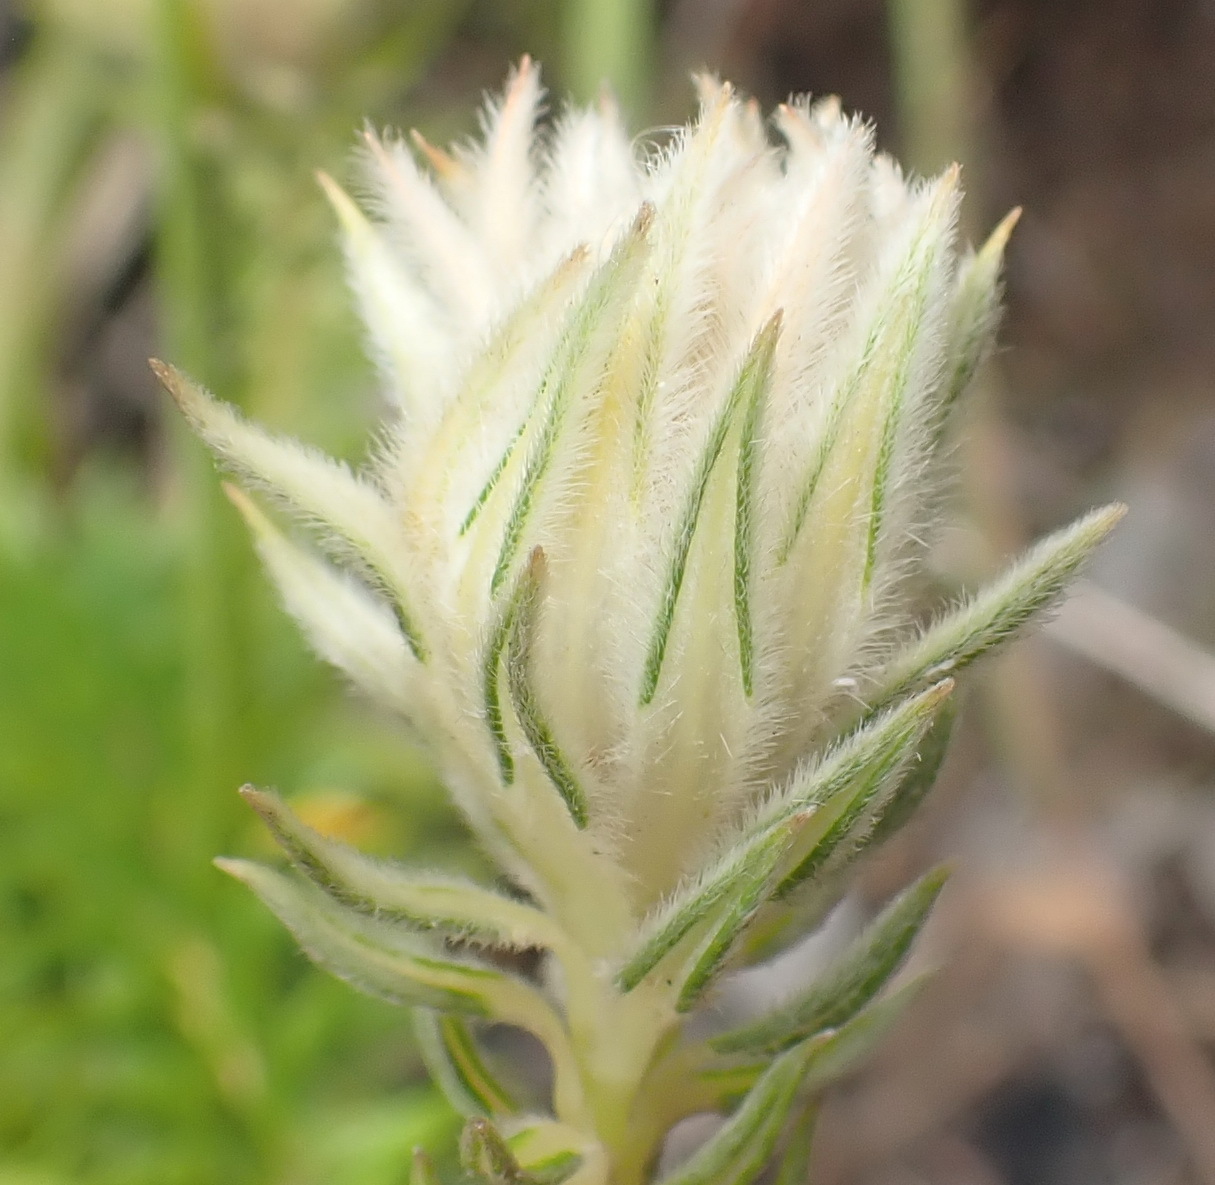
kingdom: Plantae
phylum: Tracheophyta
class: Magnoliopsida
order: Rosales
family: Rhamnaceae
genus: Phylica
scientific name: Phylica dodii
